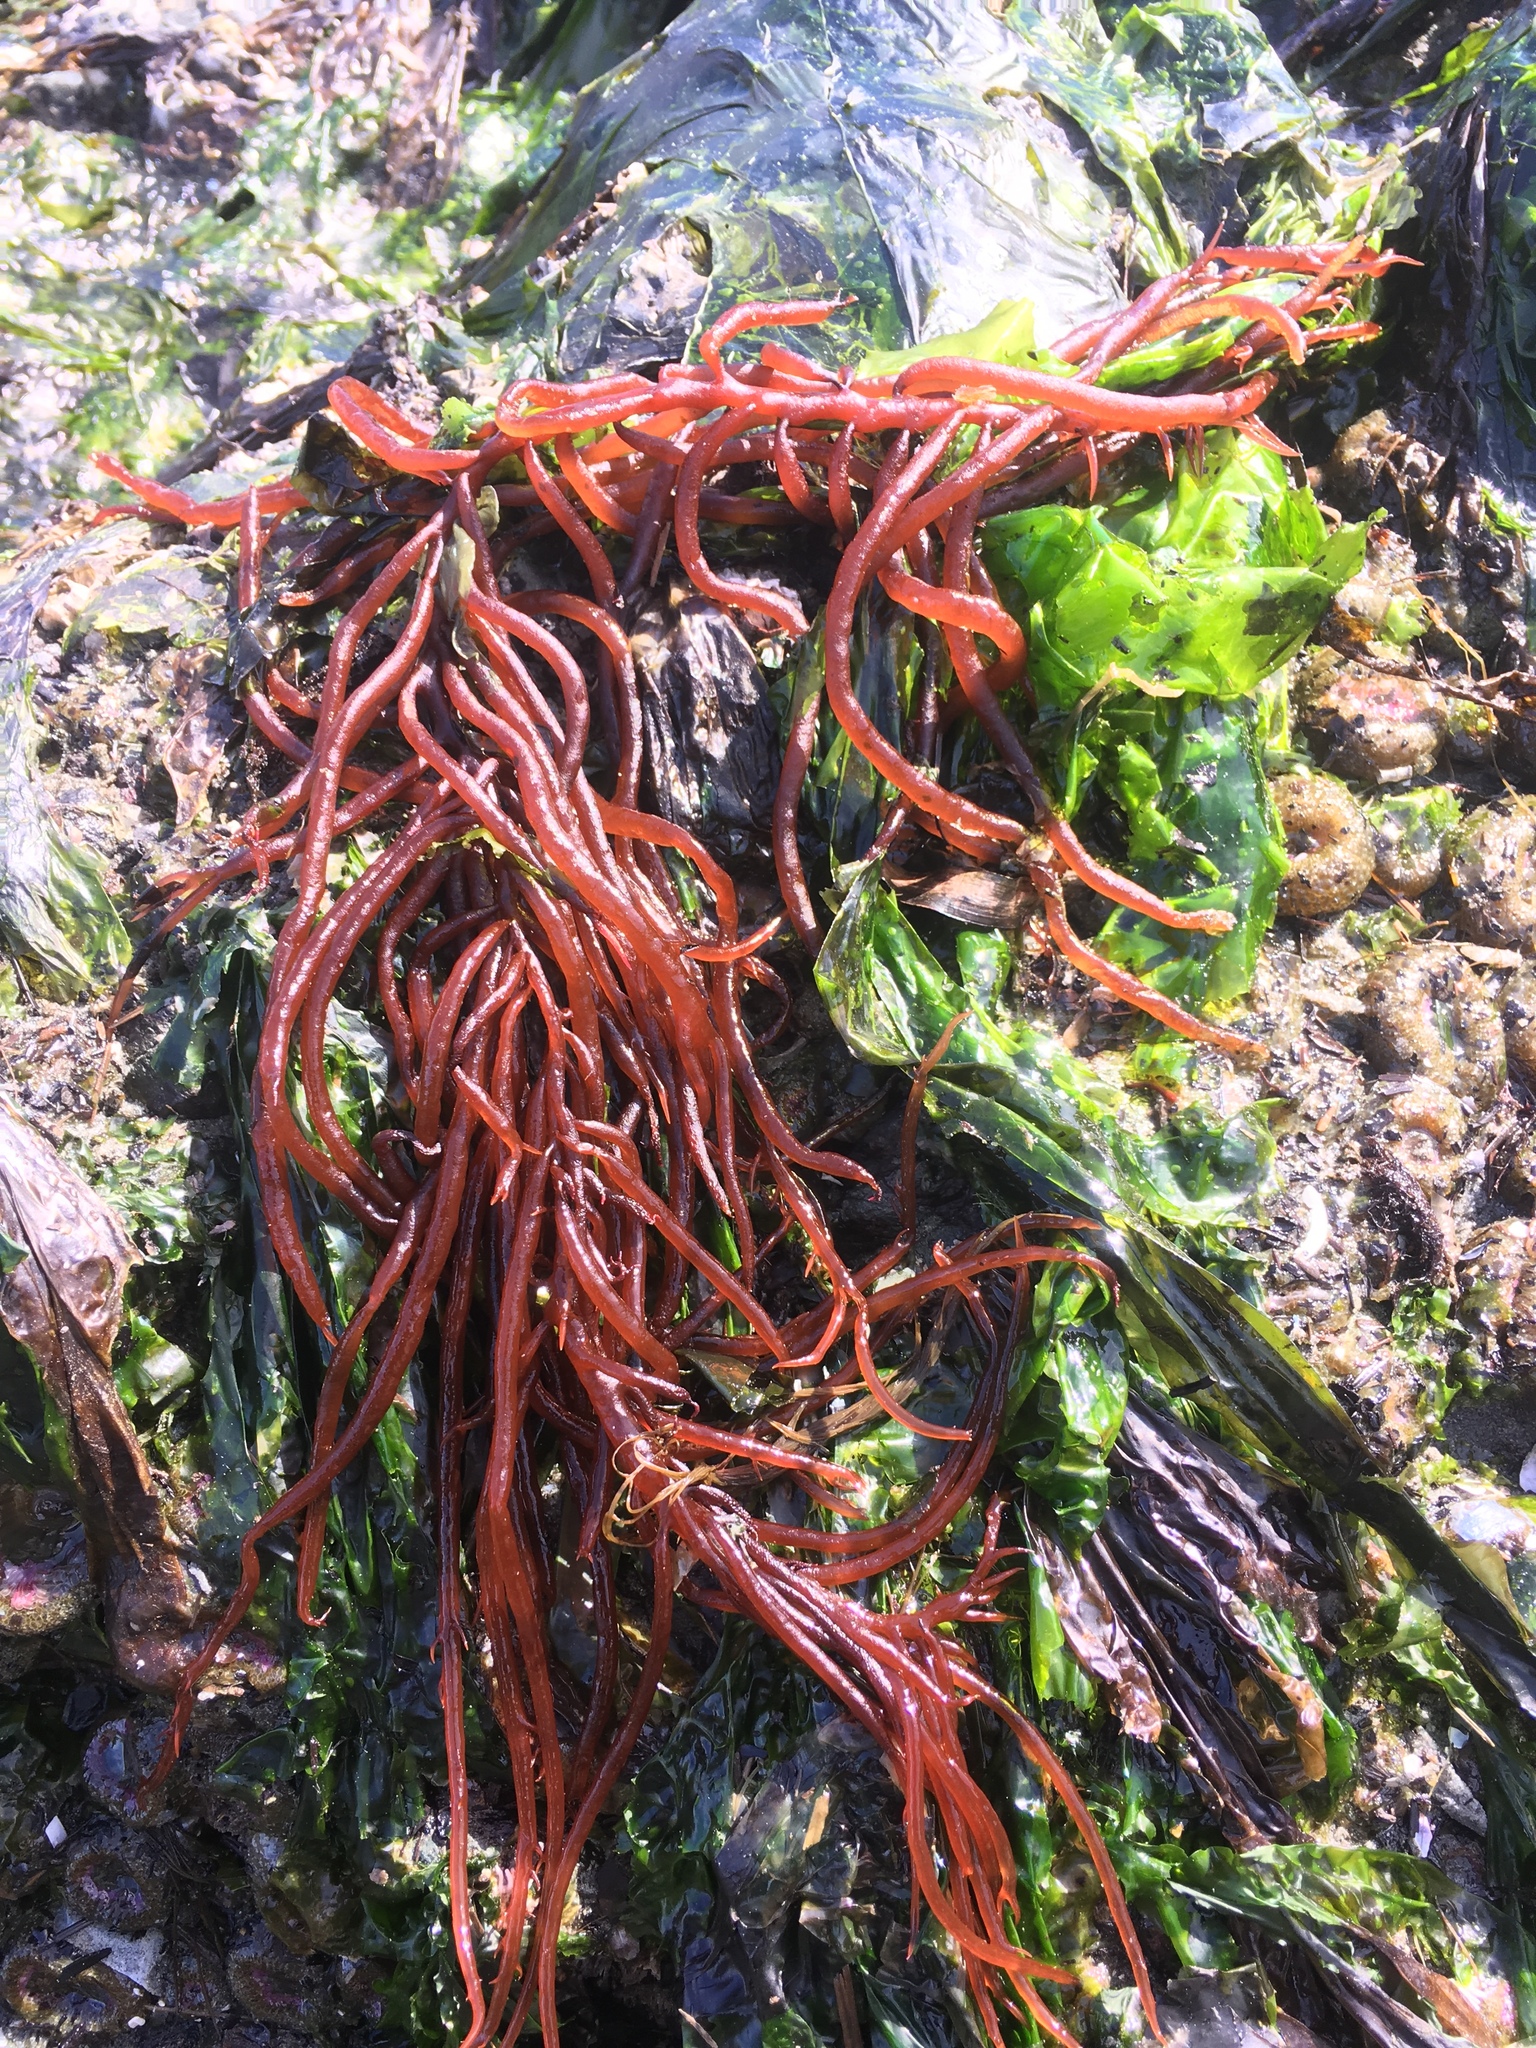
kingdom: Plantae
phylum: Rhodophyta
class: Florideophyceae
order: Gigartinales
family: Solieriaceae
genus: Sarcodiotheca
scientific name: Sarcodiotheca gaudichaudii
